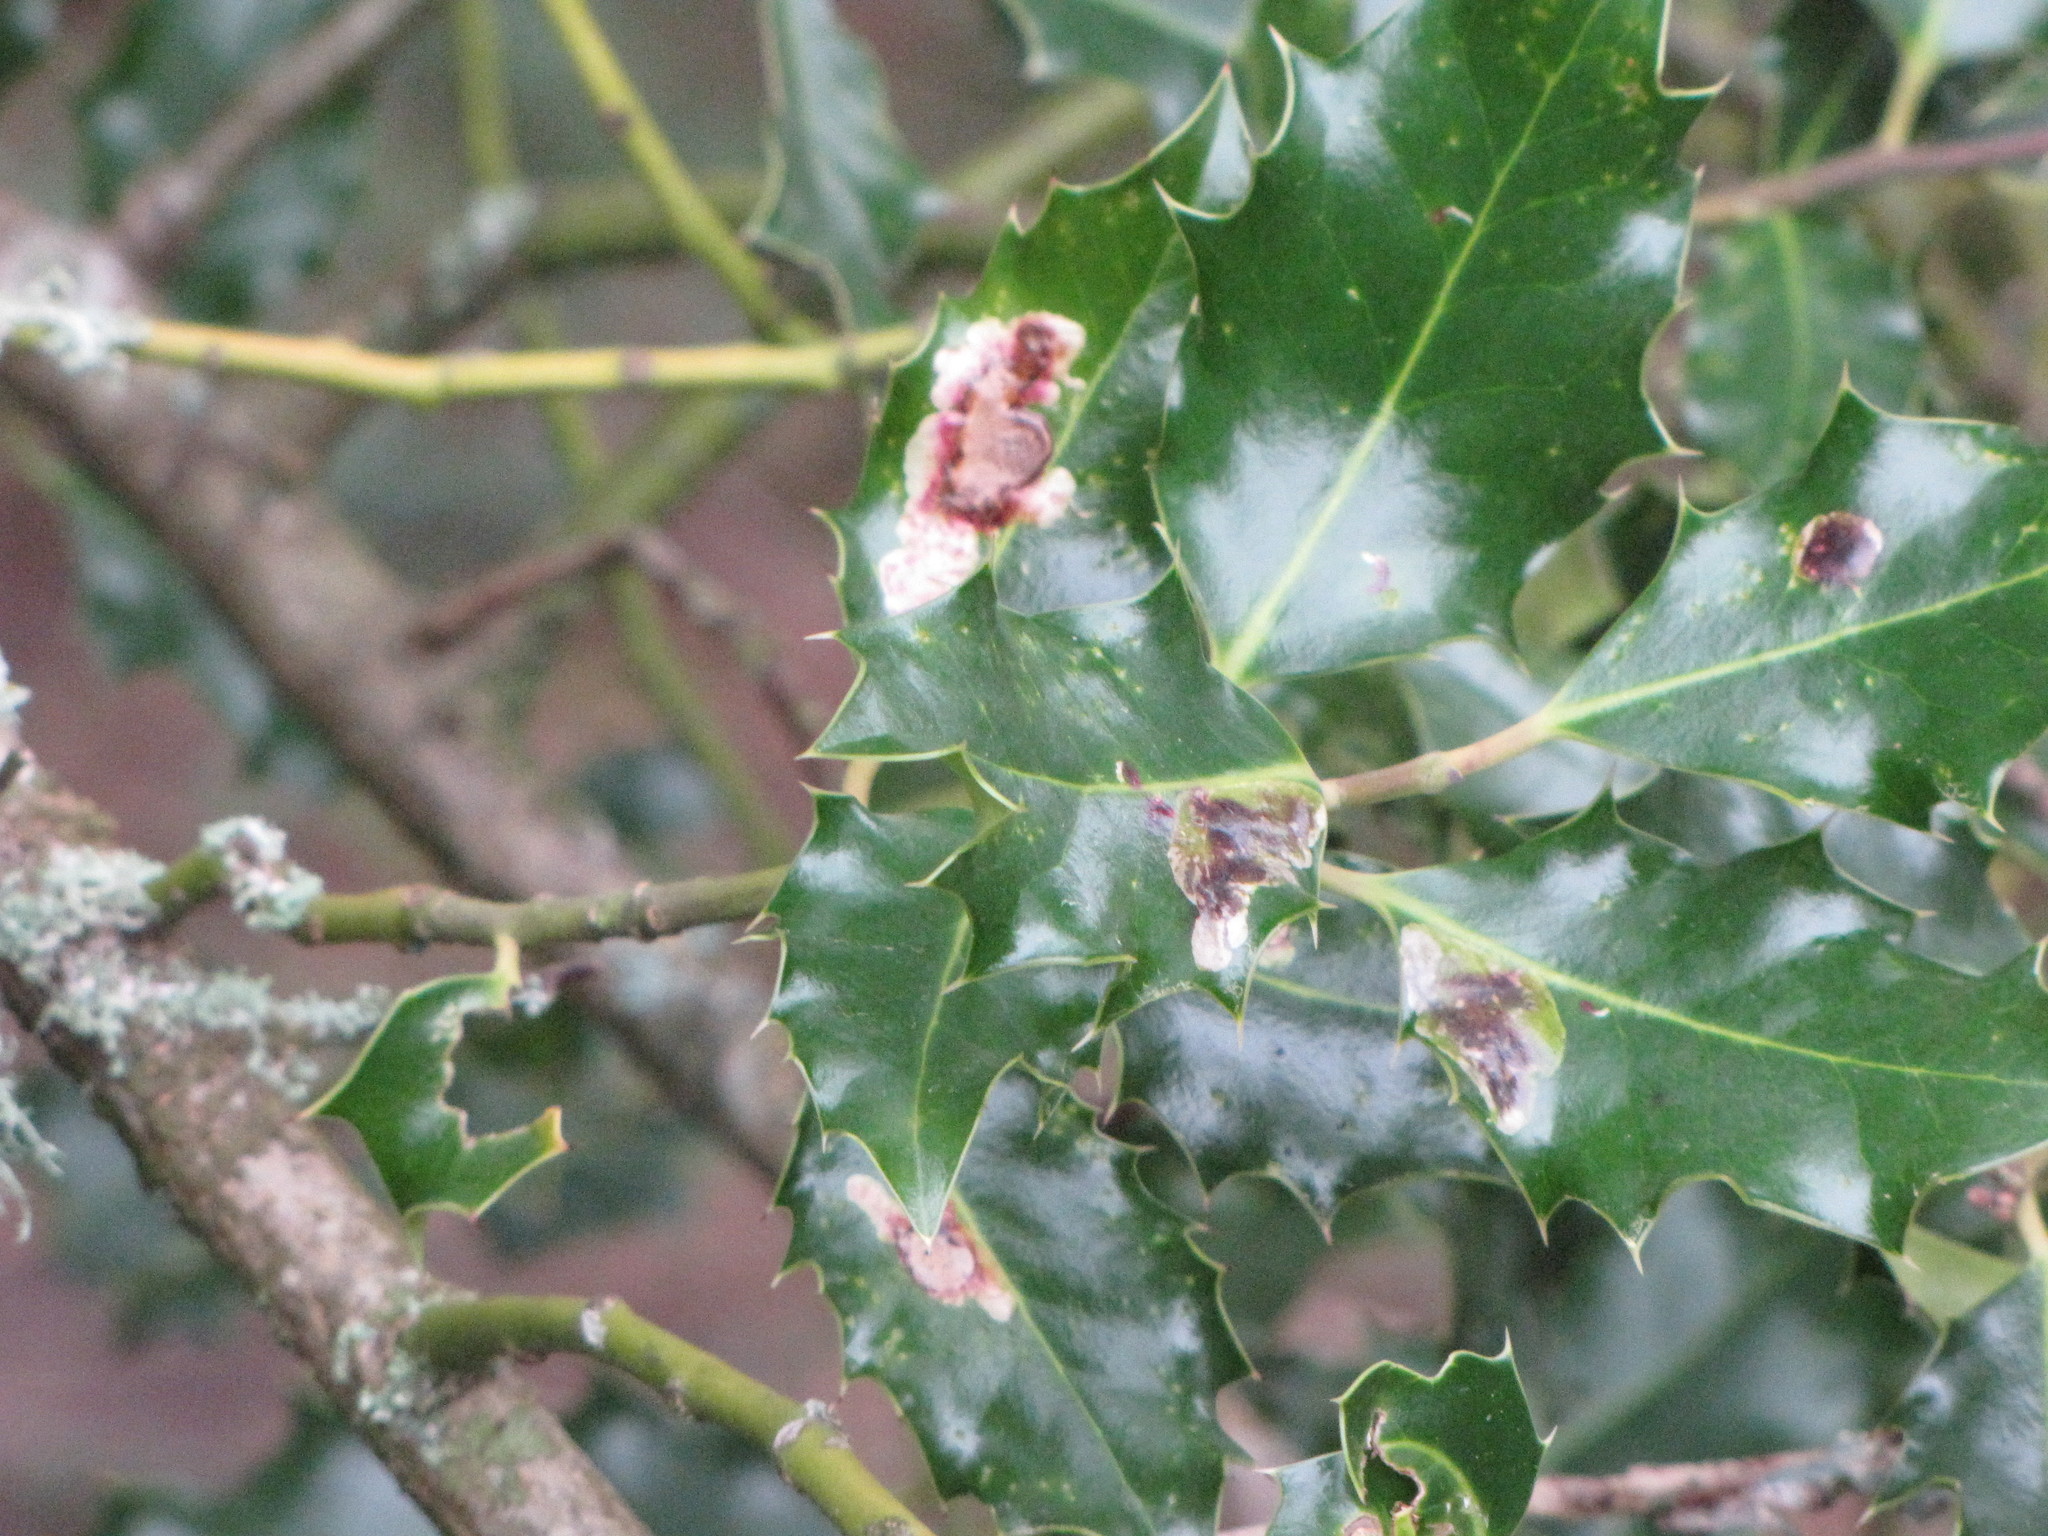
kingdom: Animalia
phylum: Arthropoda
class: Insecta
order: Diptera
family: Agromyzidae
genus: Phytomyza
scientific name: Phytomyza ilicis
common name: Holly leafminer
